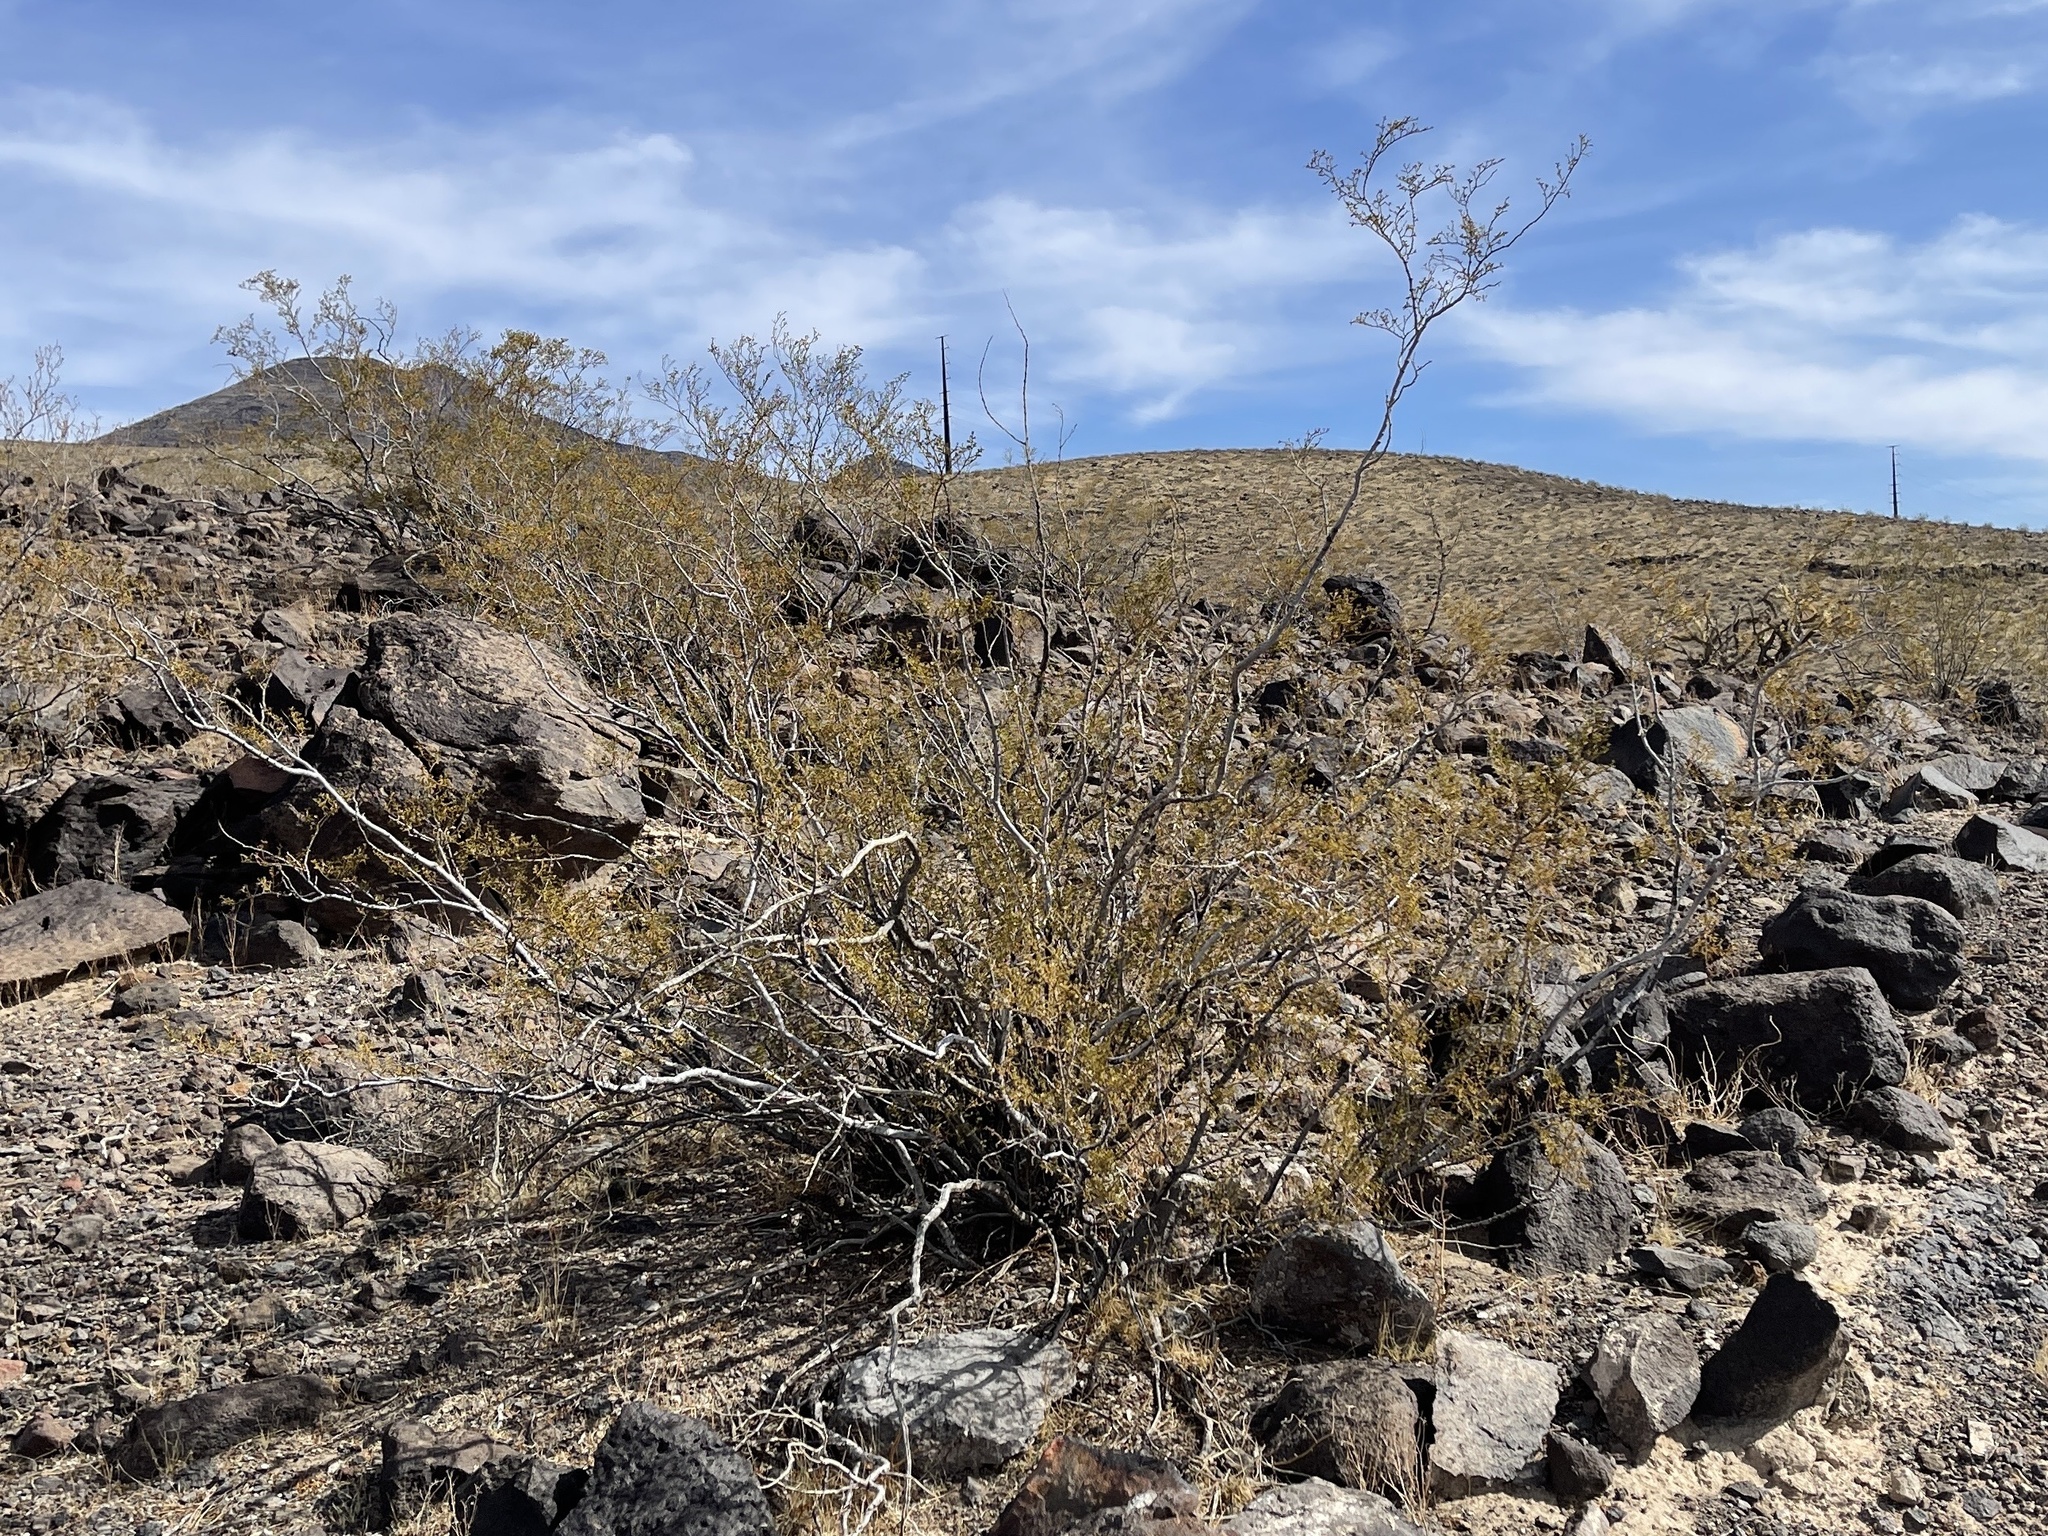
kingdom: Plantae
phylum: Tracheophyta
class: Magnoliopsida
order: Zygophyllales
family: Zygophyllaceae
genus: Larrea
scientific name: Larrea tridentata
